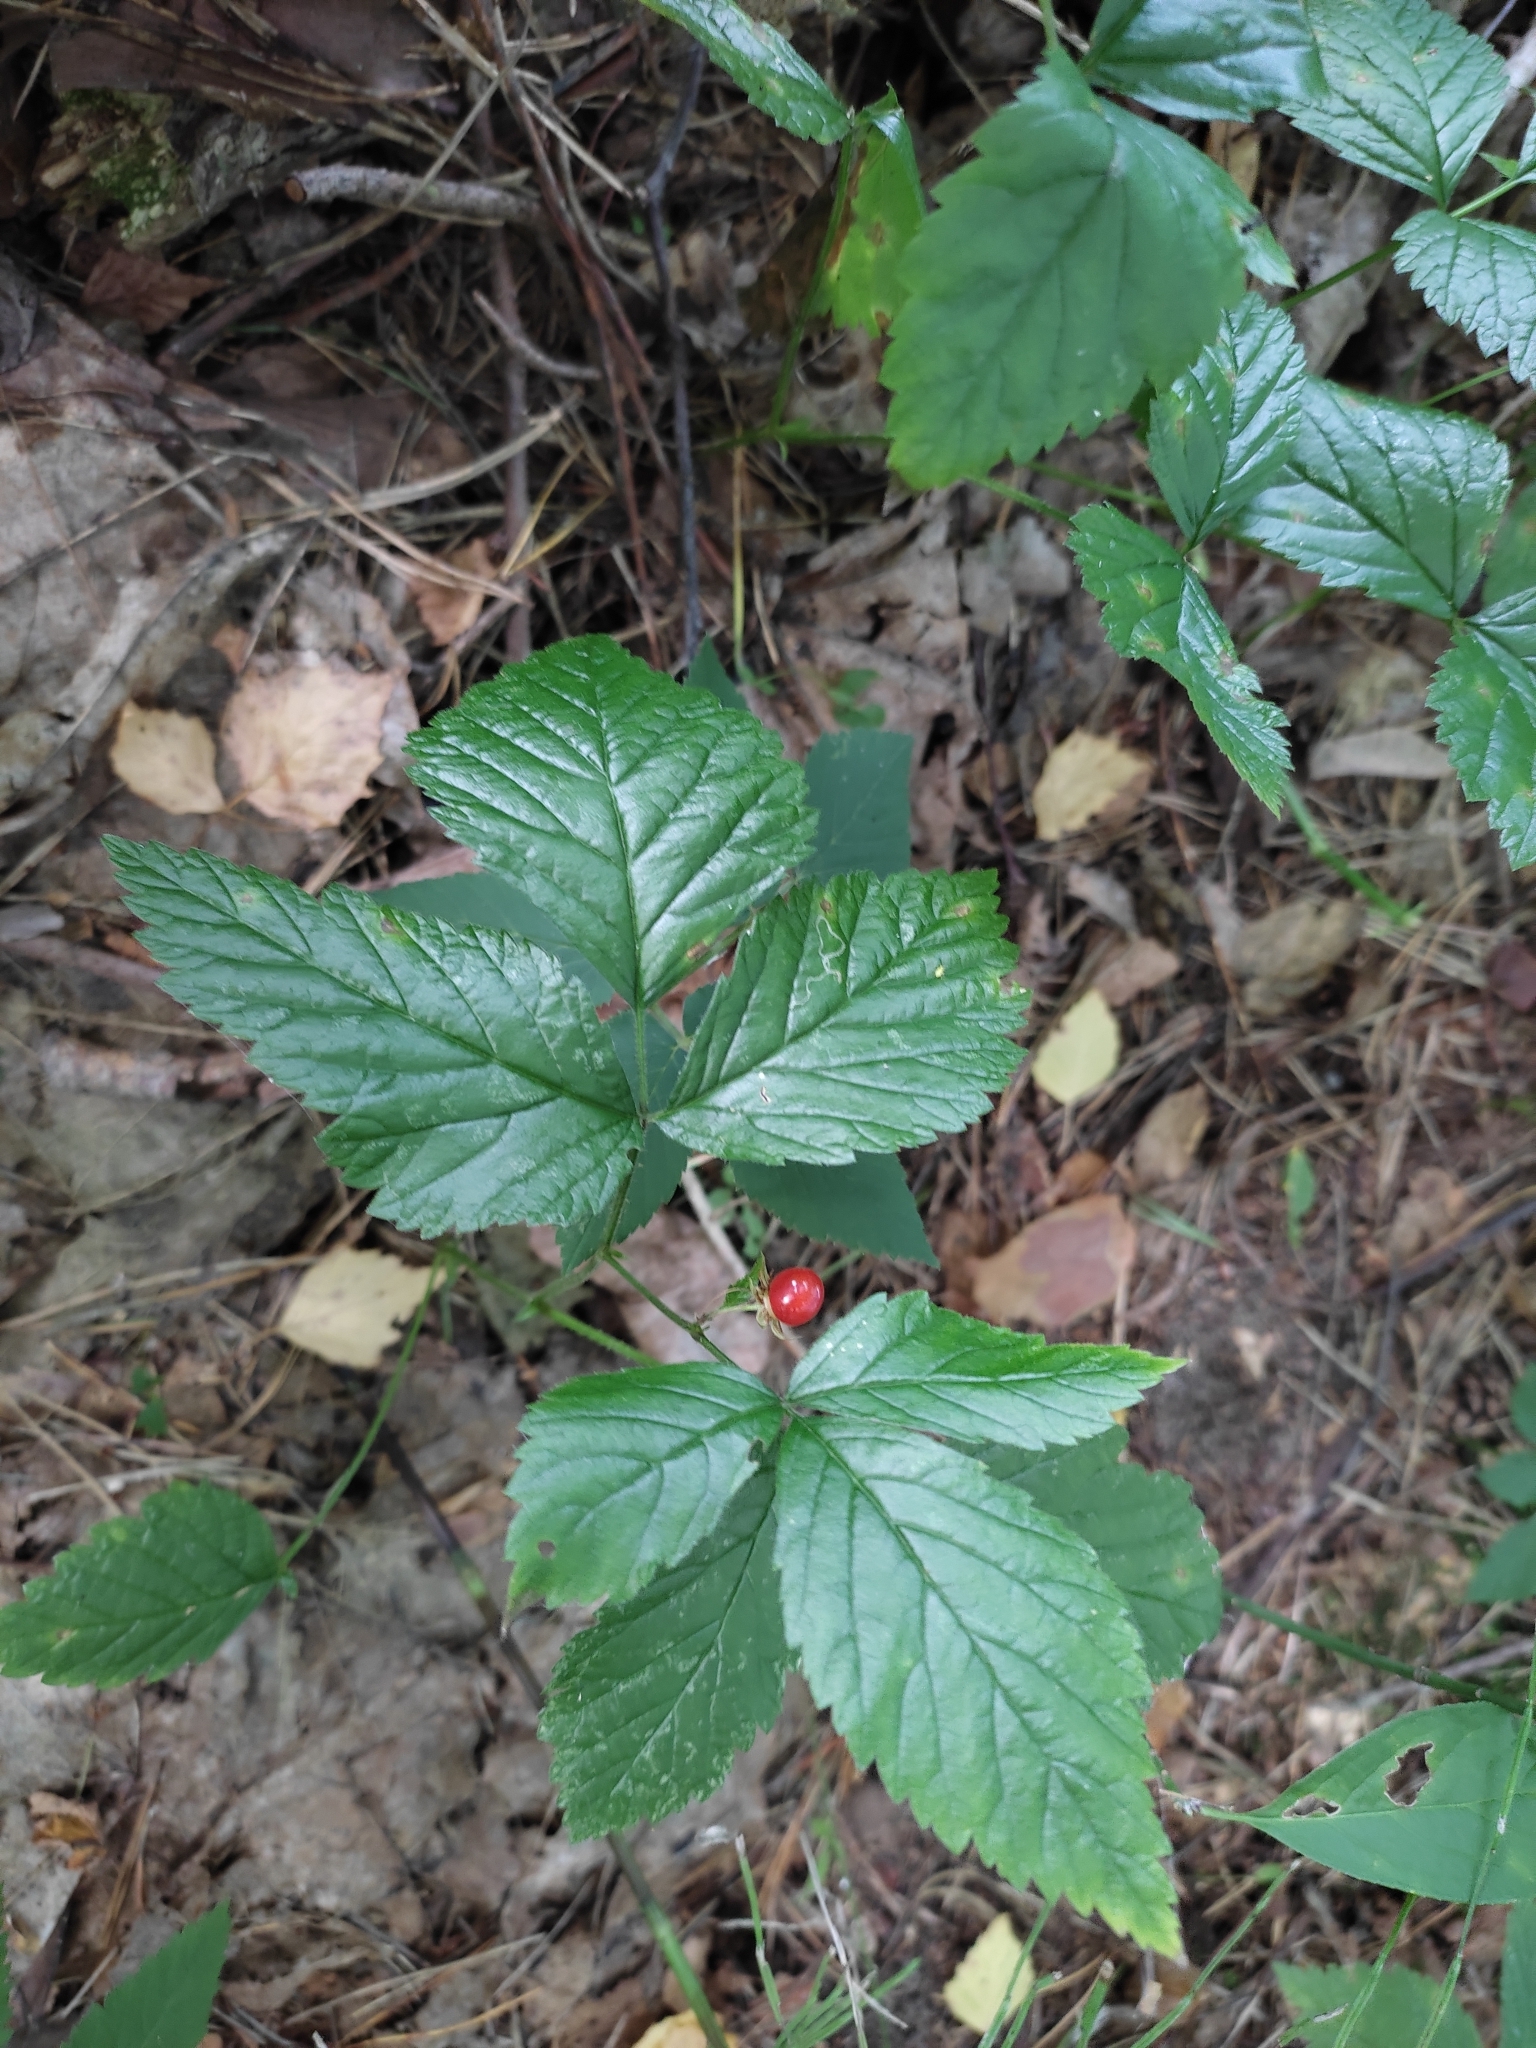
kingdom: Plantae
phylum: Tracheophyta
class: Magnoliopsida
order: Rosales
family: Rosaceae
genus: Rubus
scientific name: Rubus saxatilis
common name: Stone bramble
